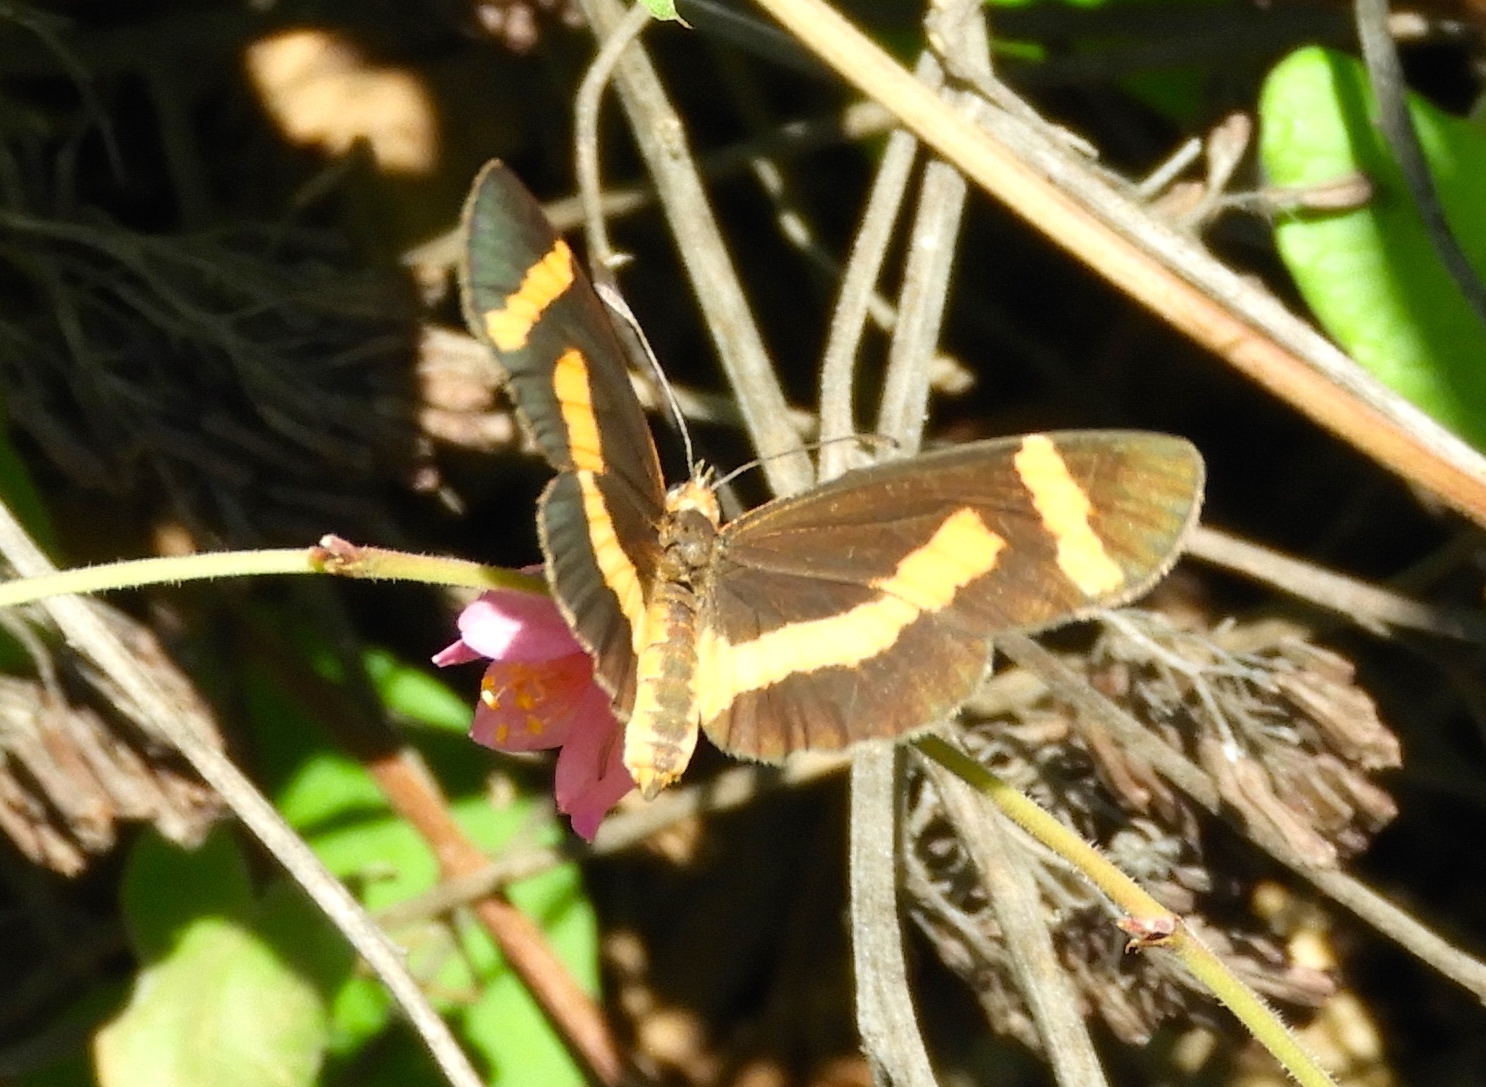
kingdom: Animalia
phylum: Arthropoda
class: Insecta
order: Lepidoptera
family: Nymphalidae
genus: Microtia
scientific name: Microtia elva
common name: Elf
